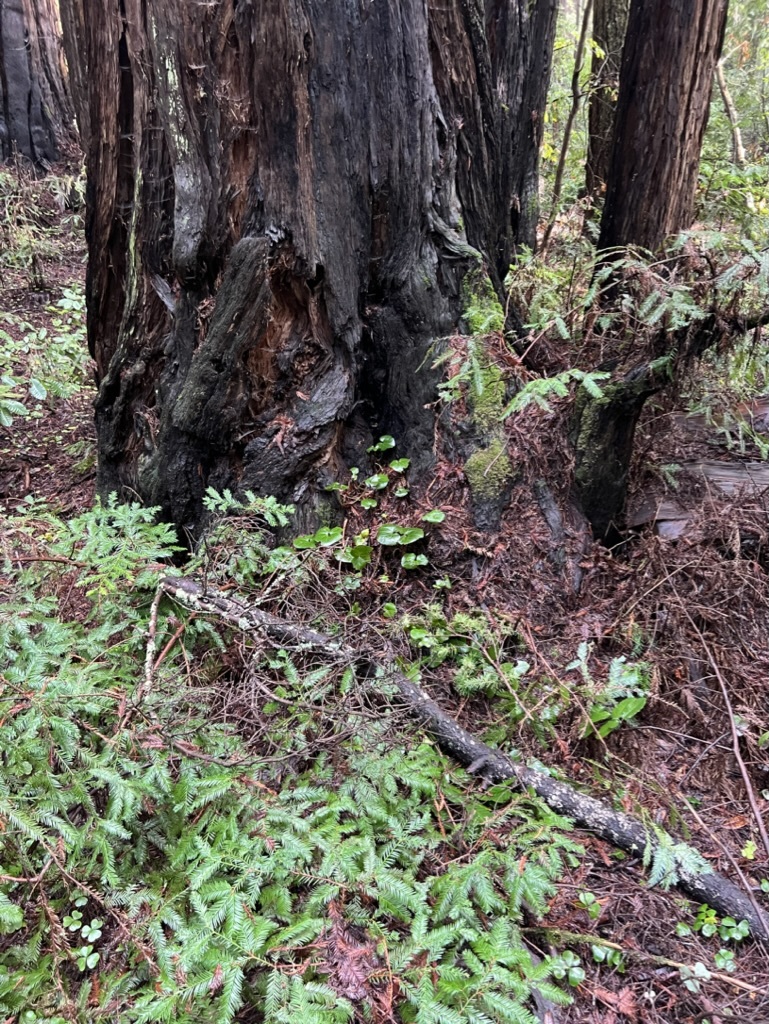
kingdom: Plantae
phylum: Tracheophyta
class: Magnoliopsida
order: Piperales
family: Aristolochiaceae
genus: Asarum
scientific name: Asarum caudatum
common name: Wild ginger
